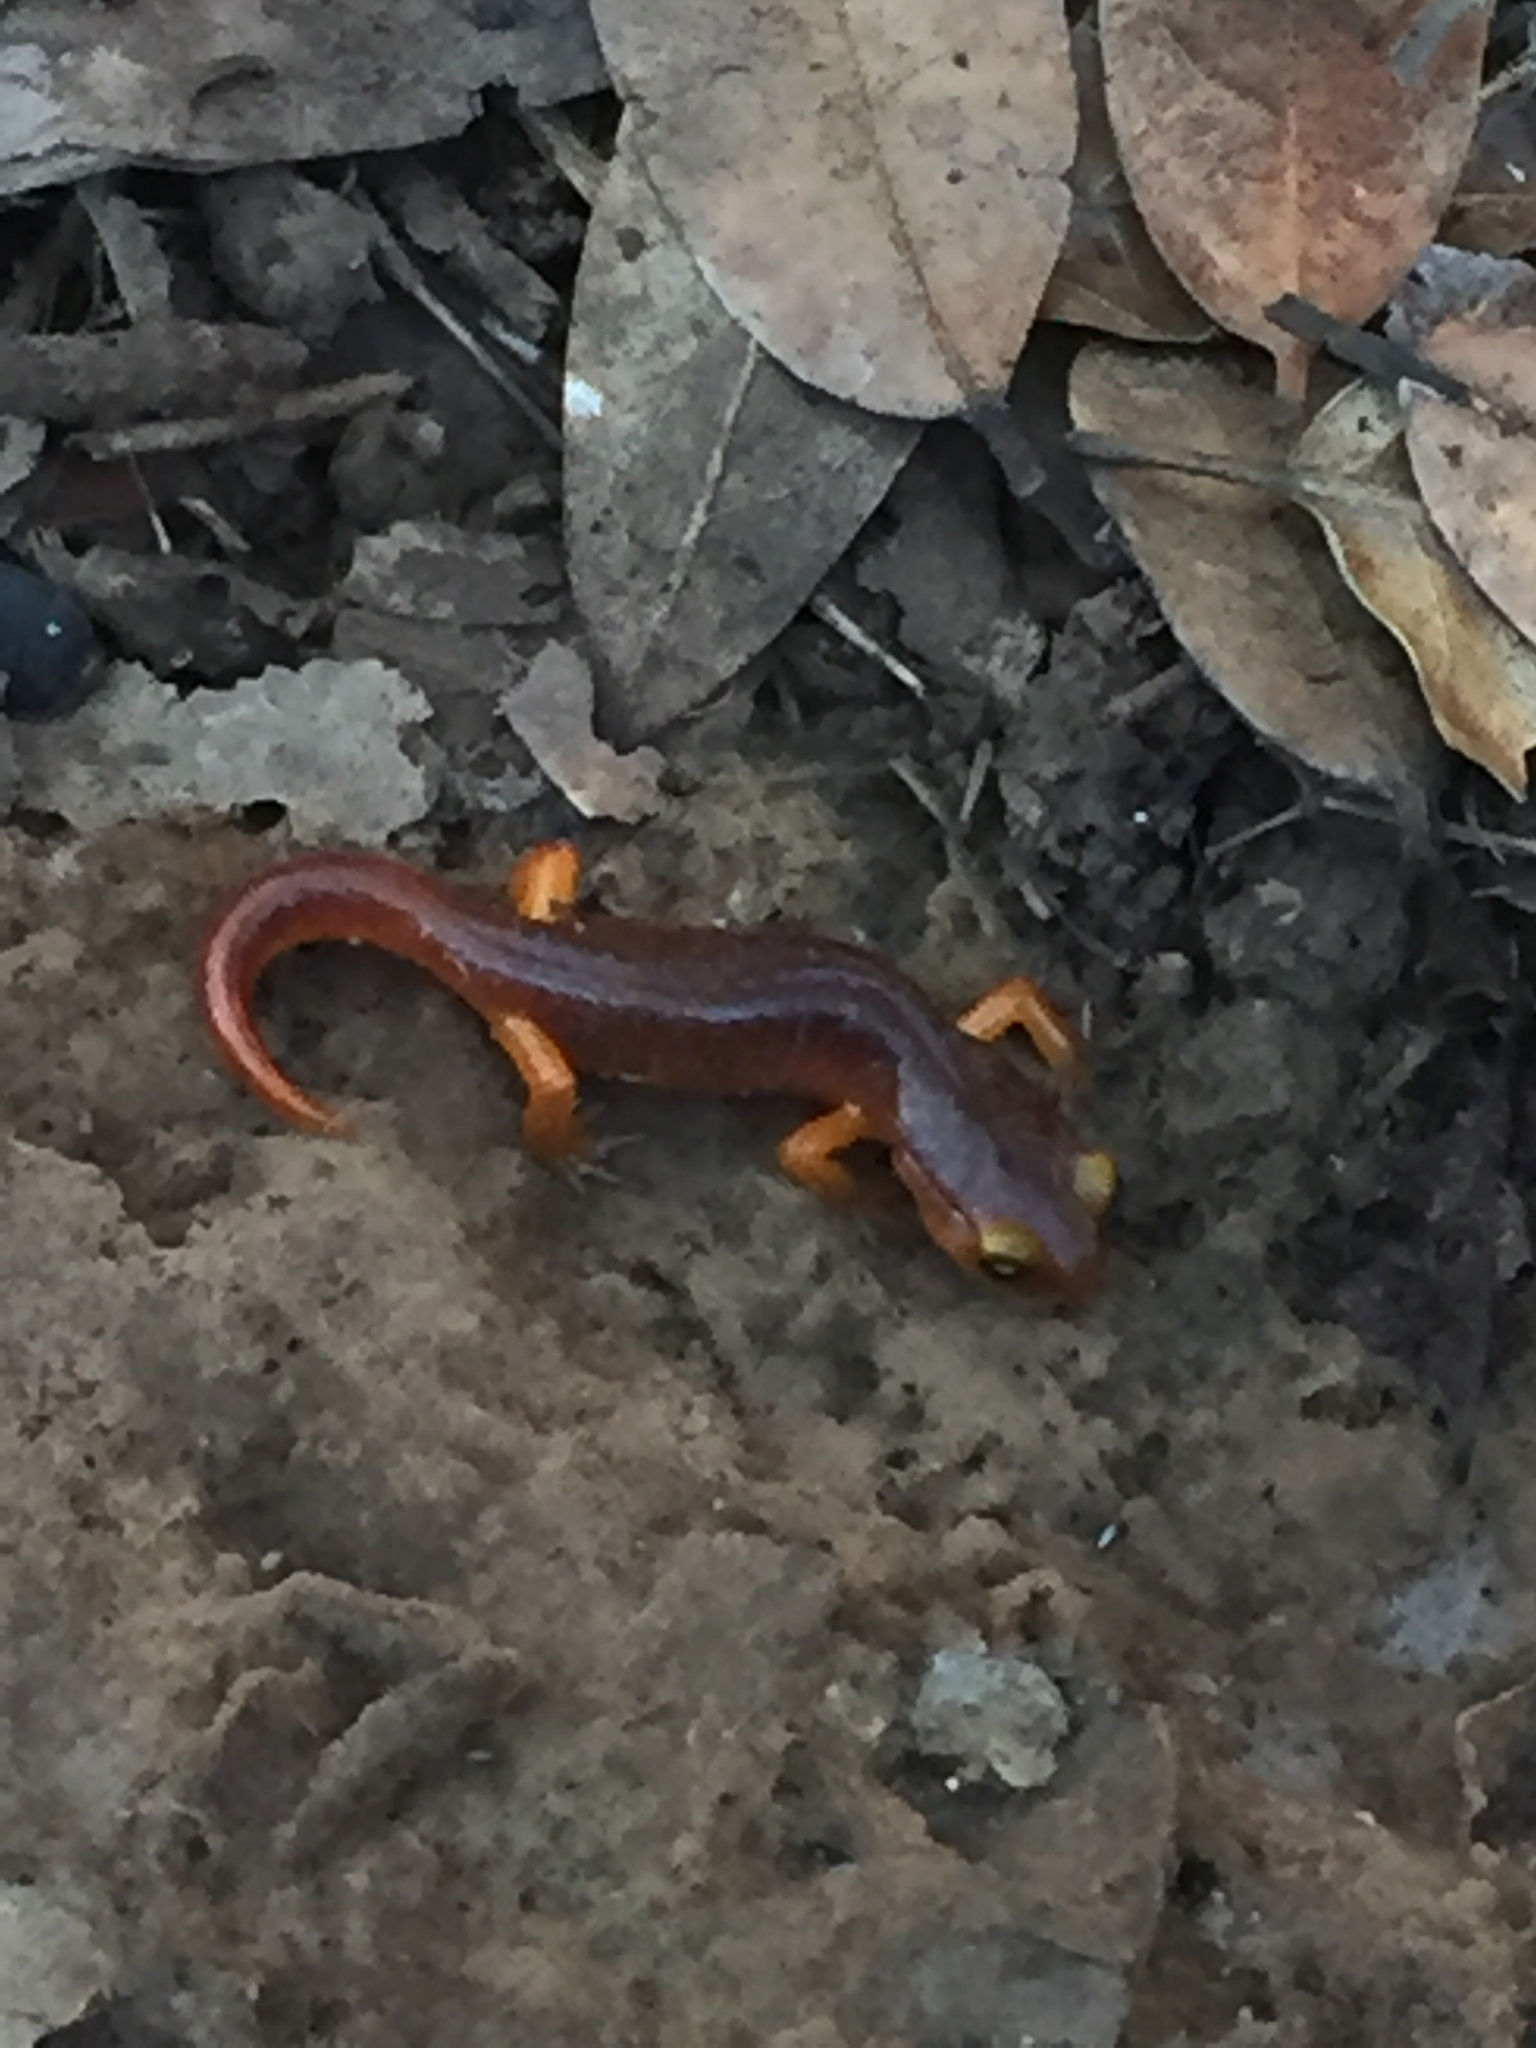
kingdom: Animalia
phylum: Chordata
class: Amphibia
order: Caudata
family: Plethodontidae
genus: Ensatina
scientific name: Ensatina eschscholtzii
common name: Ensatina
